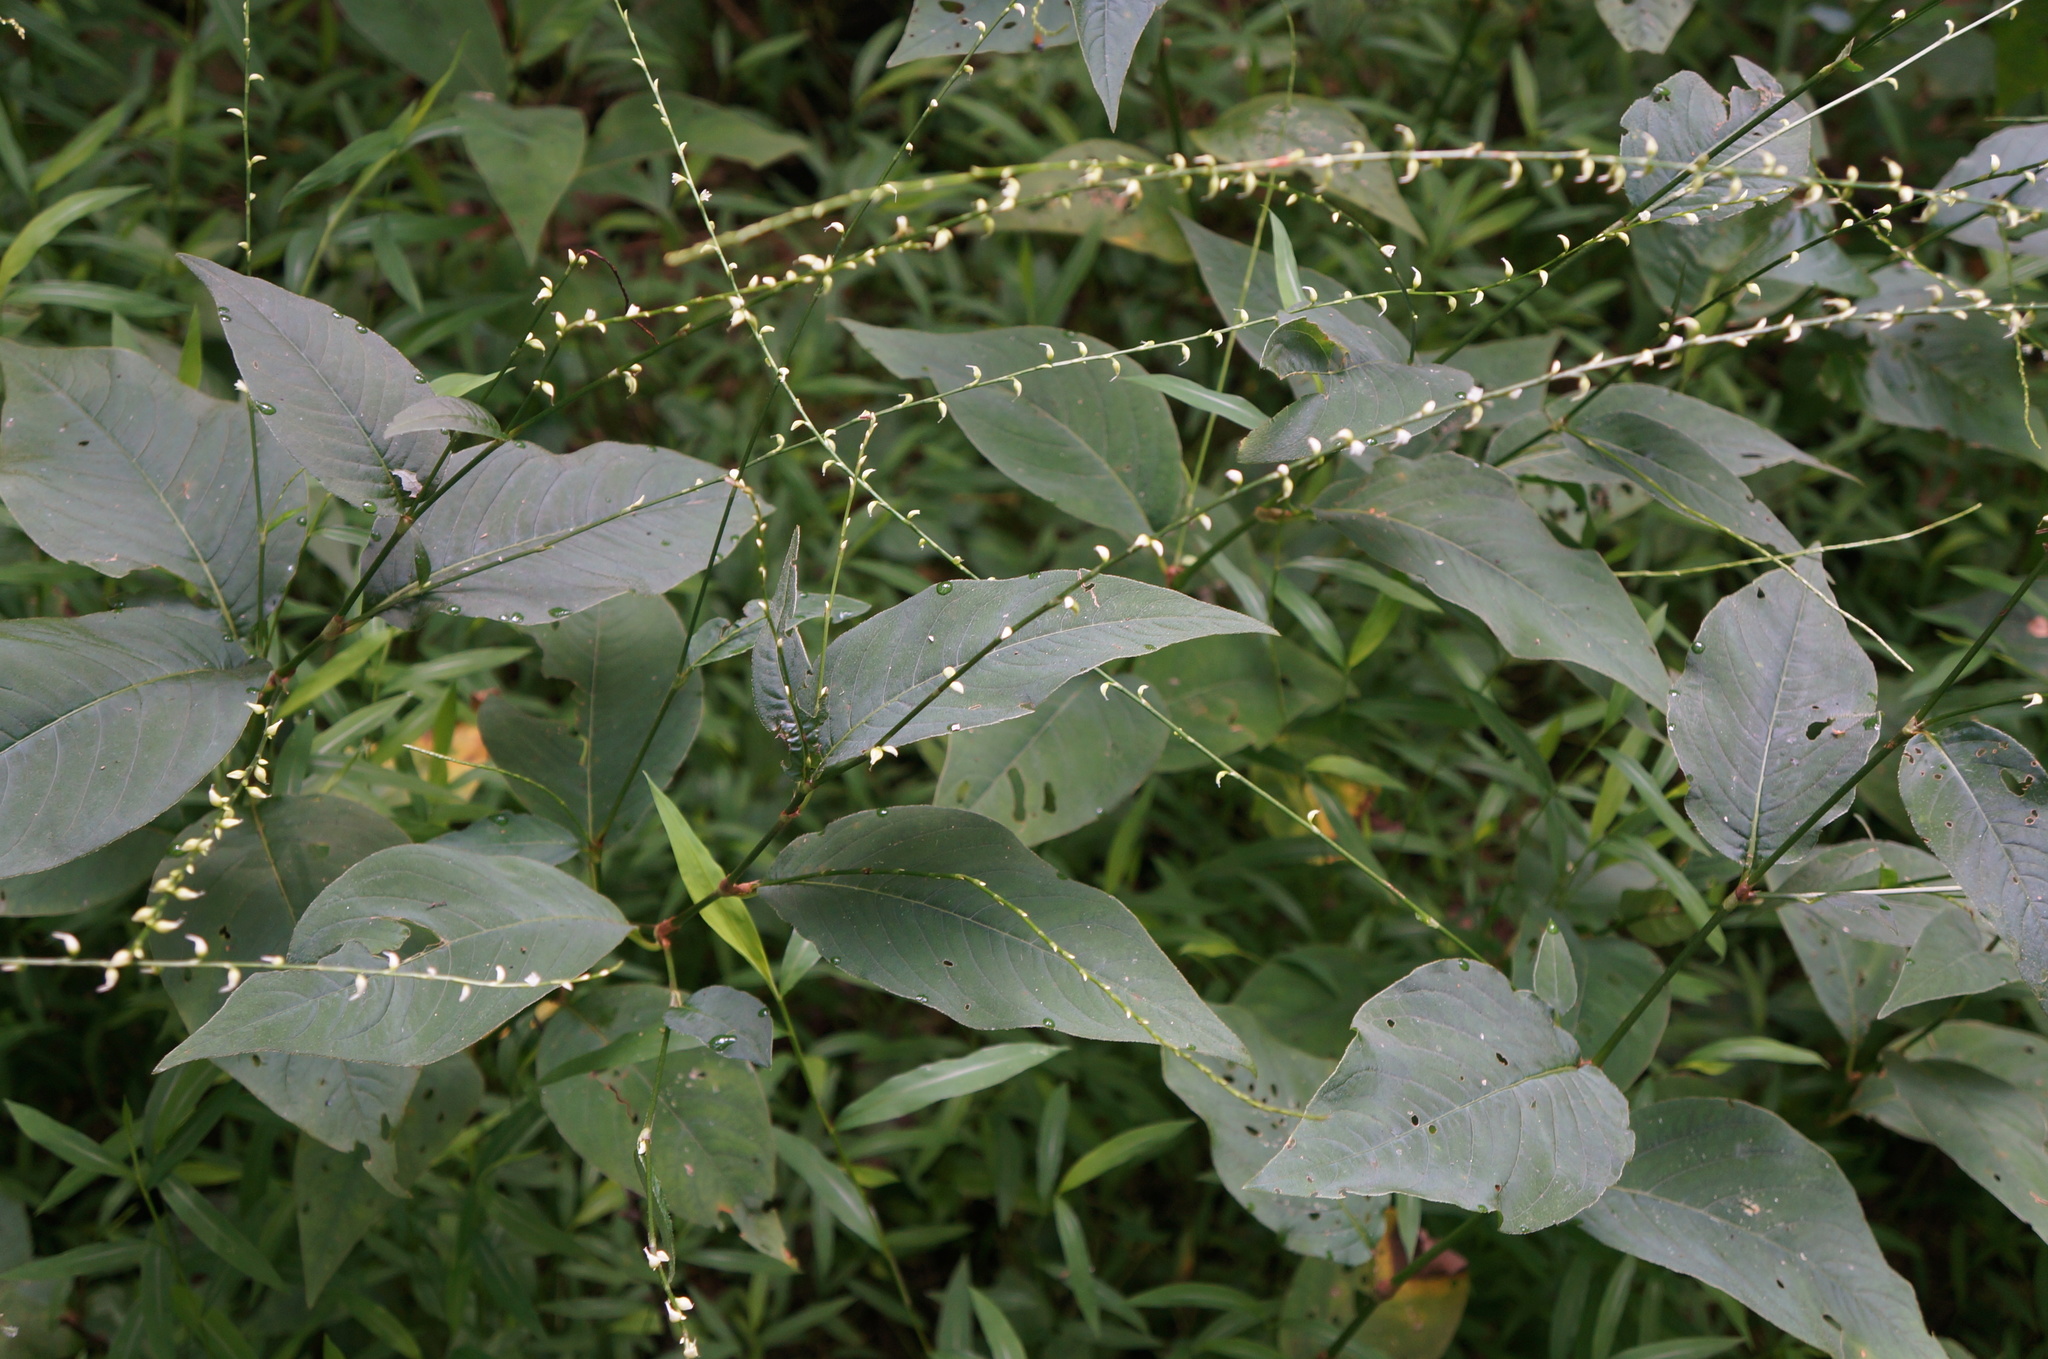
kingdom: Plantae
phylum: Tracheophyta
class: Magnoliopsida
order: Caryophyllales
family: Polygonaceae
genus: Persicaria
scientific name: Persicaria virginiana
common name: Jumpseed
